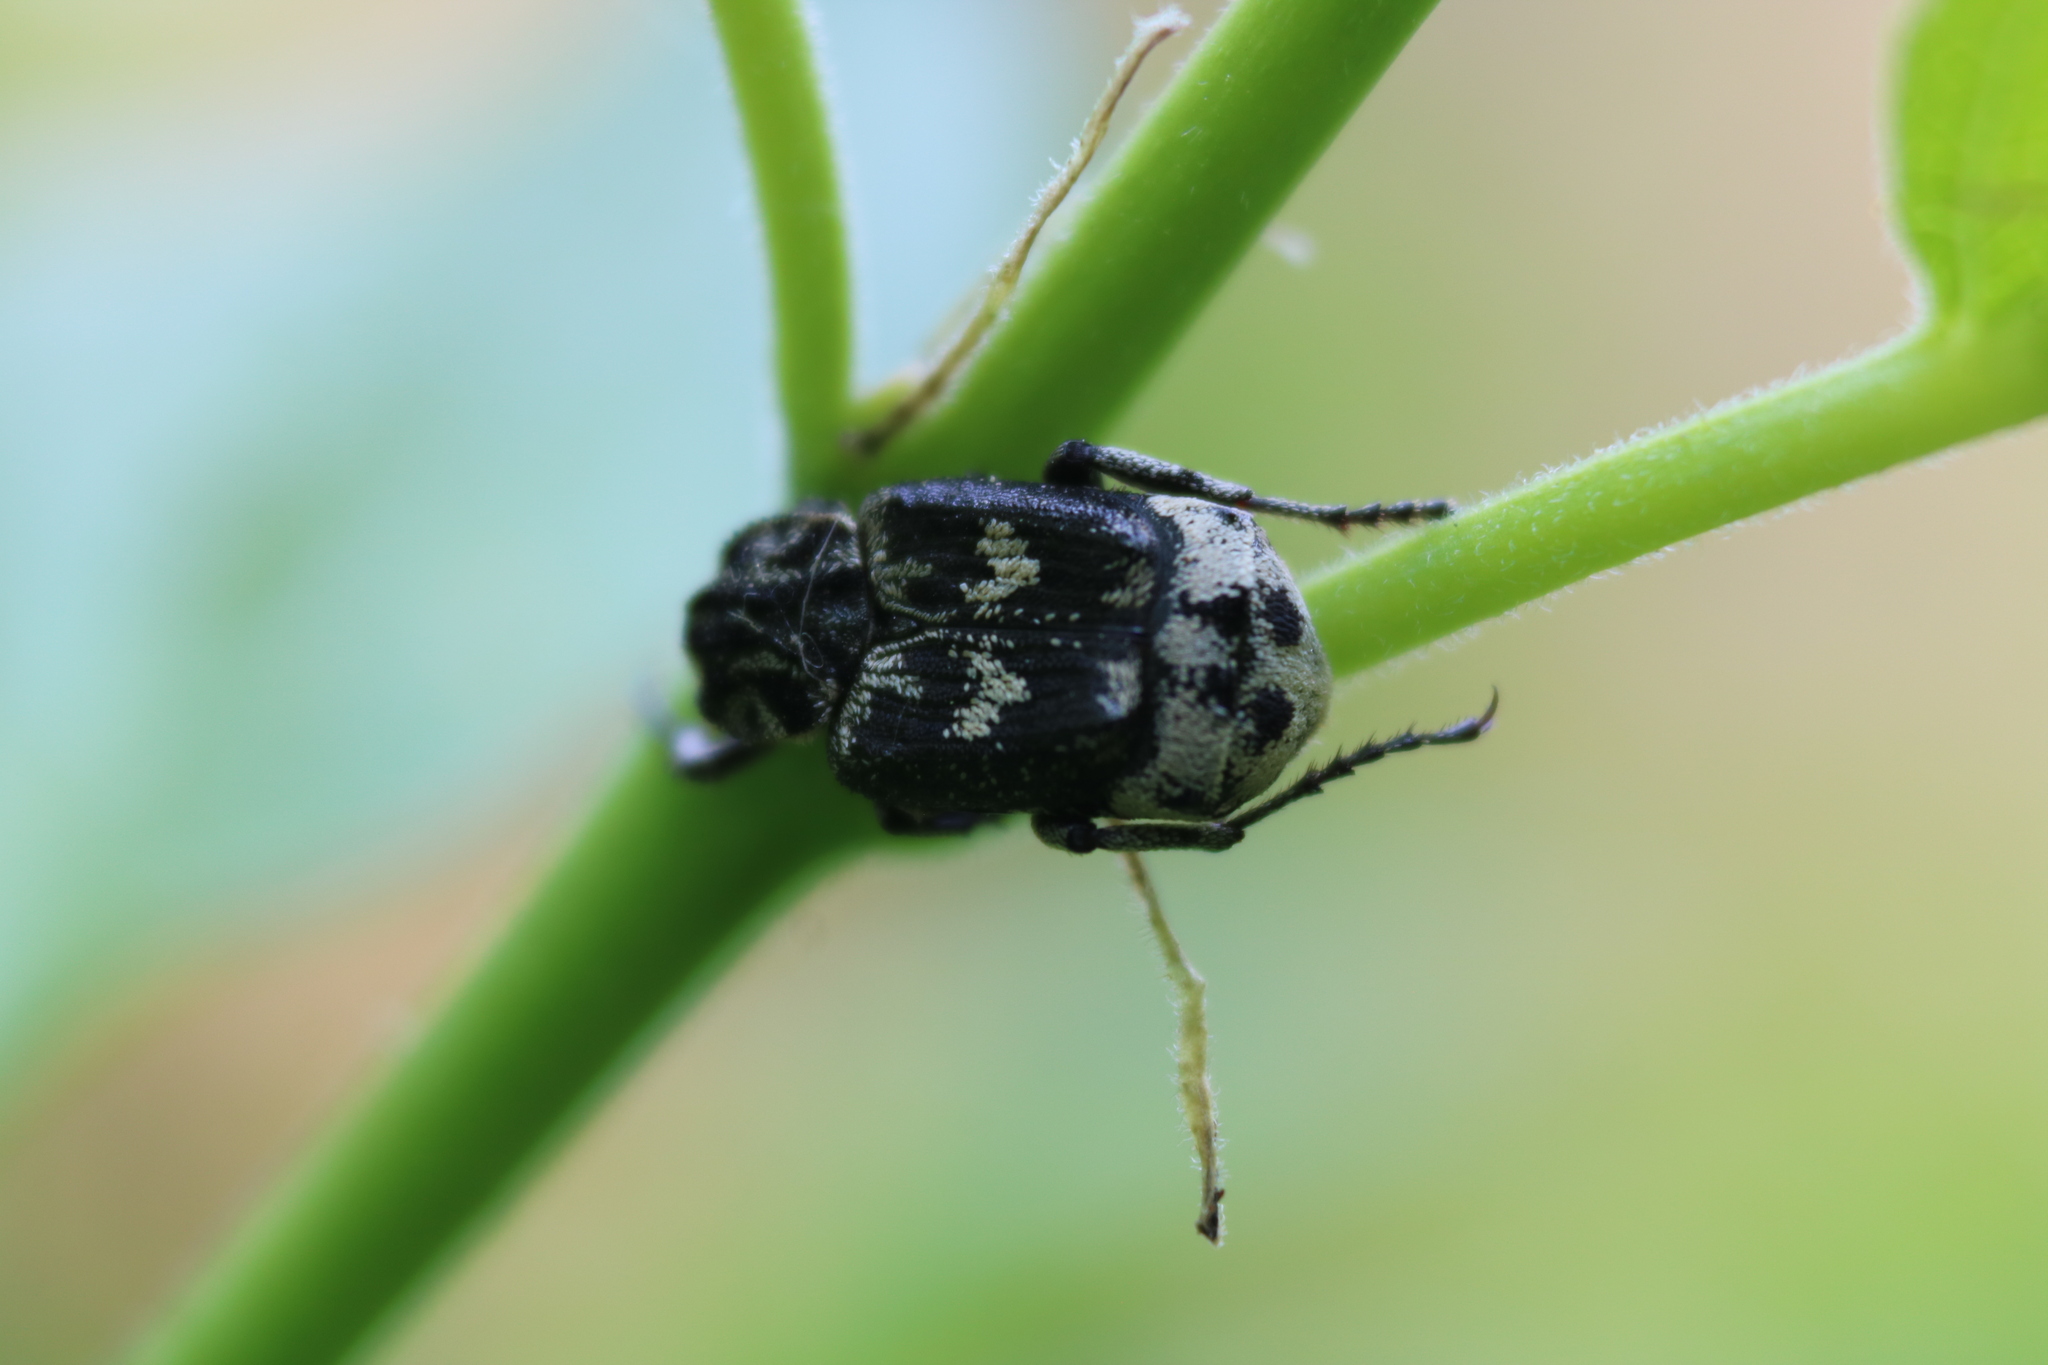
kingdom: Animalia
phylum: Arthropoda
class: Insecta
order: Coleoptera
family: Scarabaeidae
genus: Valgus
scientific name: Valgus hemipterus
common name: Bug flower chafer
